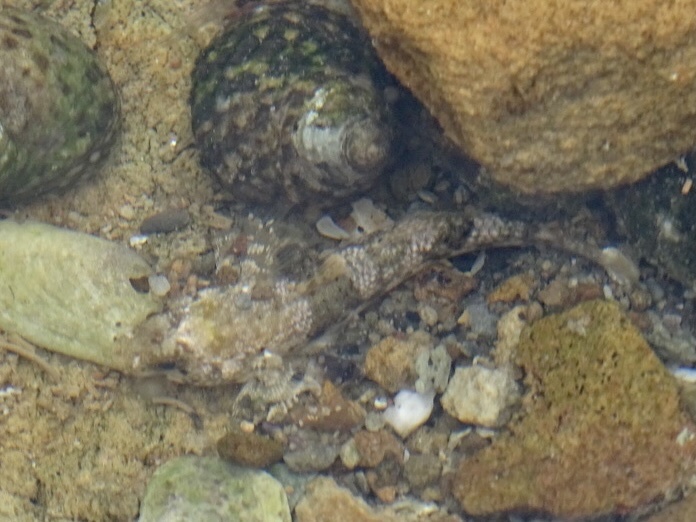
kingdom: Animalia
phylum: Chordata
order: Perciformes
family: Gobiidae
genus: Bathygobius
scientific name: Bathygobius fuscus
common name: Dusky frillgoby
